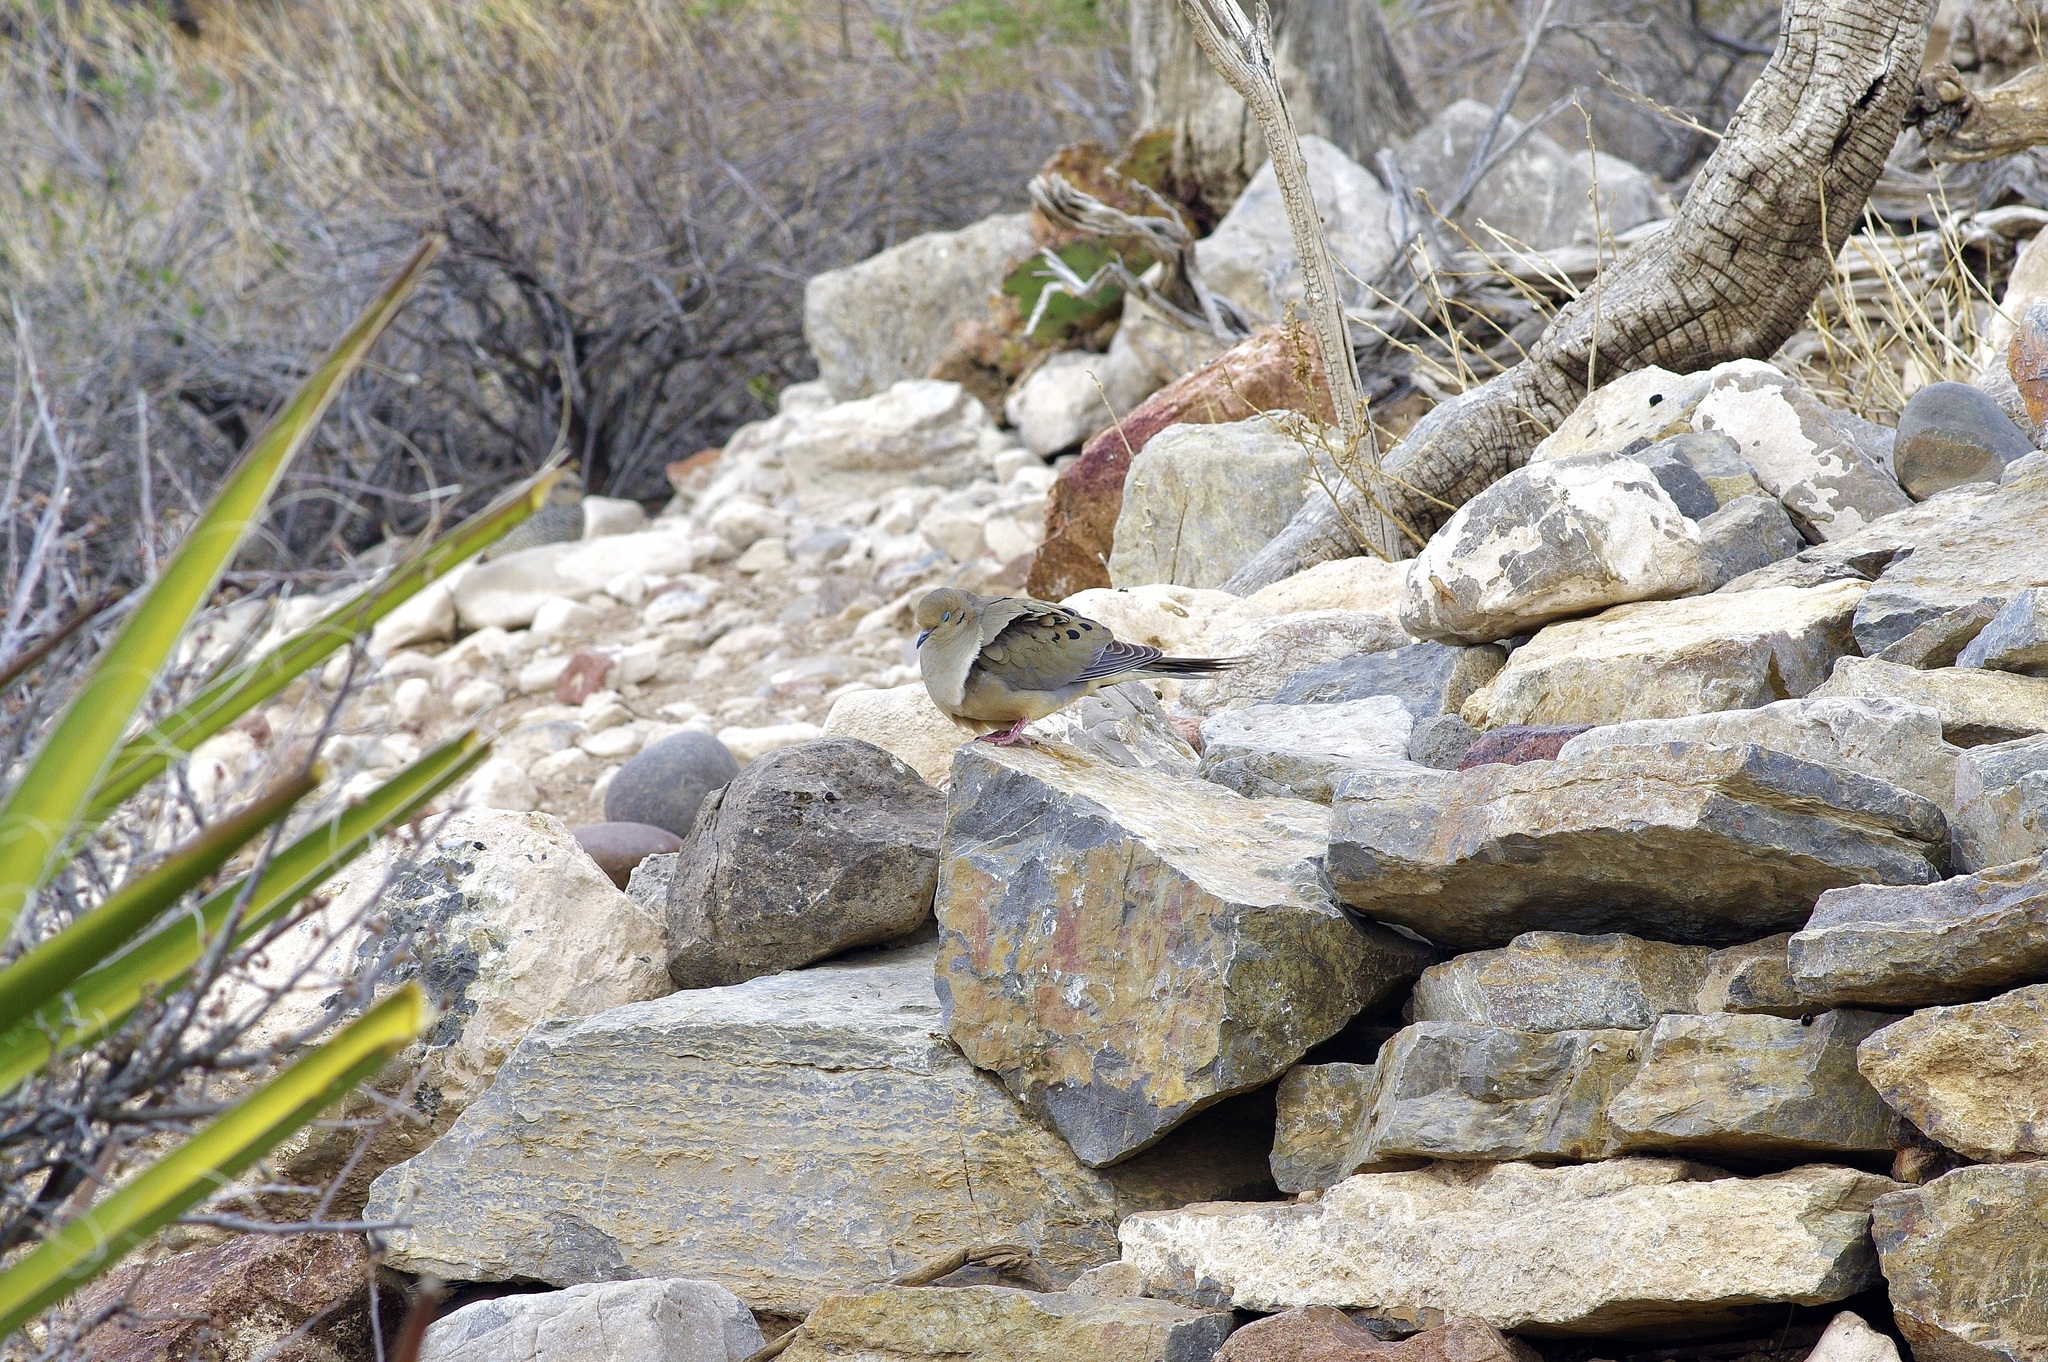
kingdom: Animalia
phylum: Chordata
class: Aves
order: Columbiformes
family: Columbidae
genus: Zenaida
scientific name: Zenaida macroura
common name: Mourning dove
